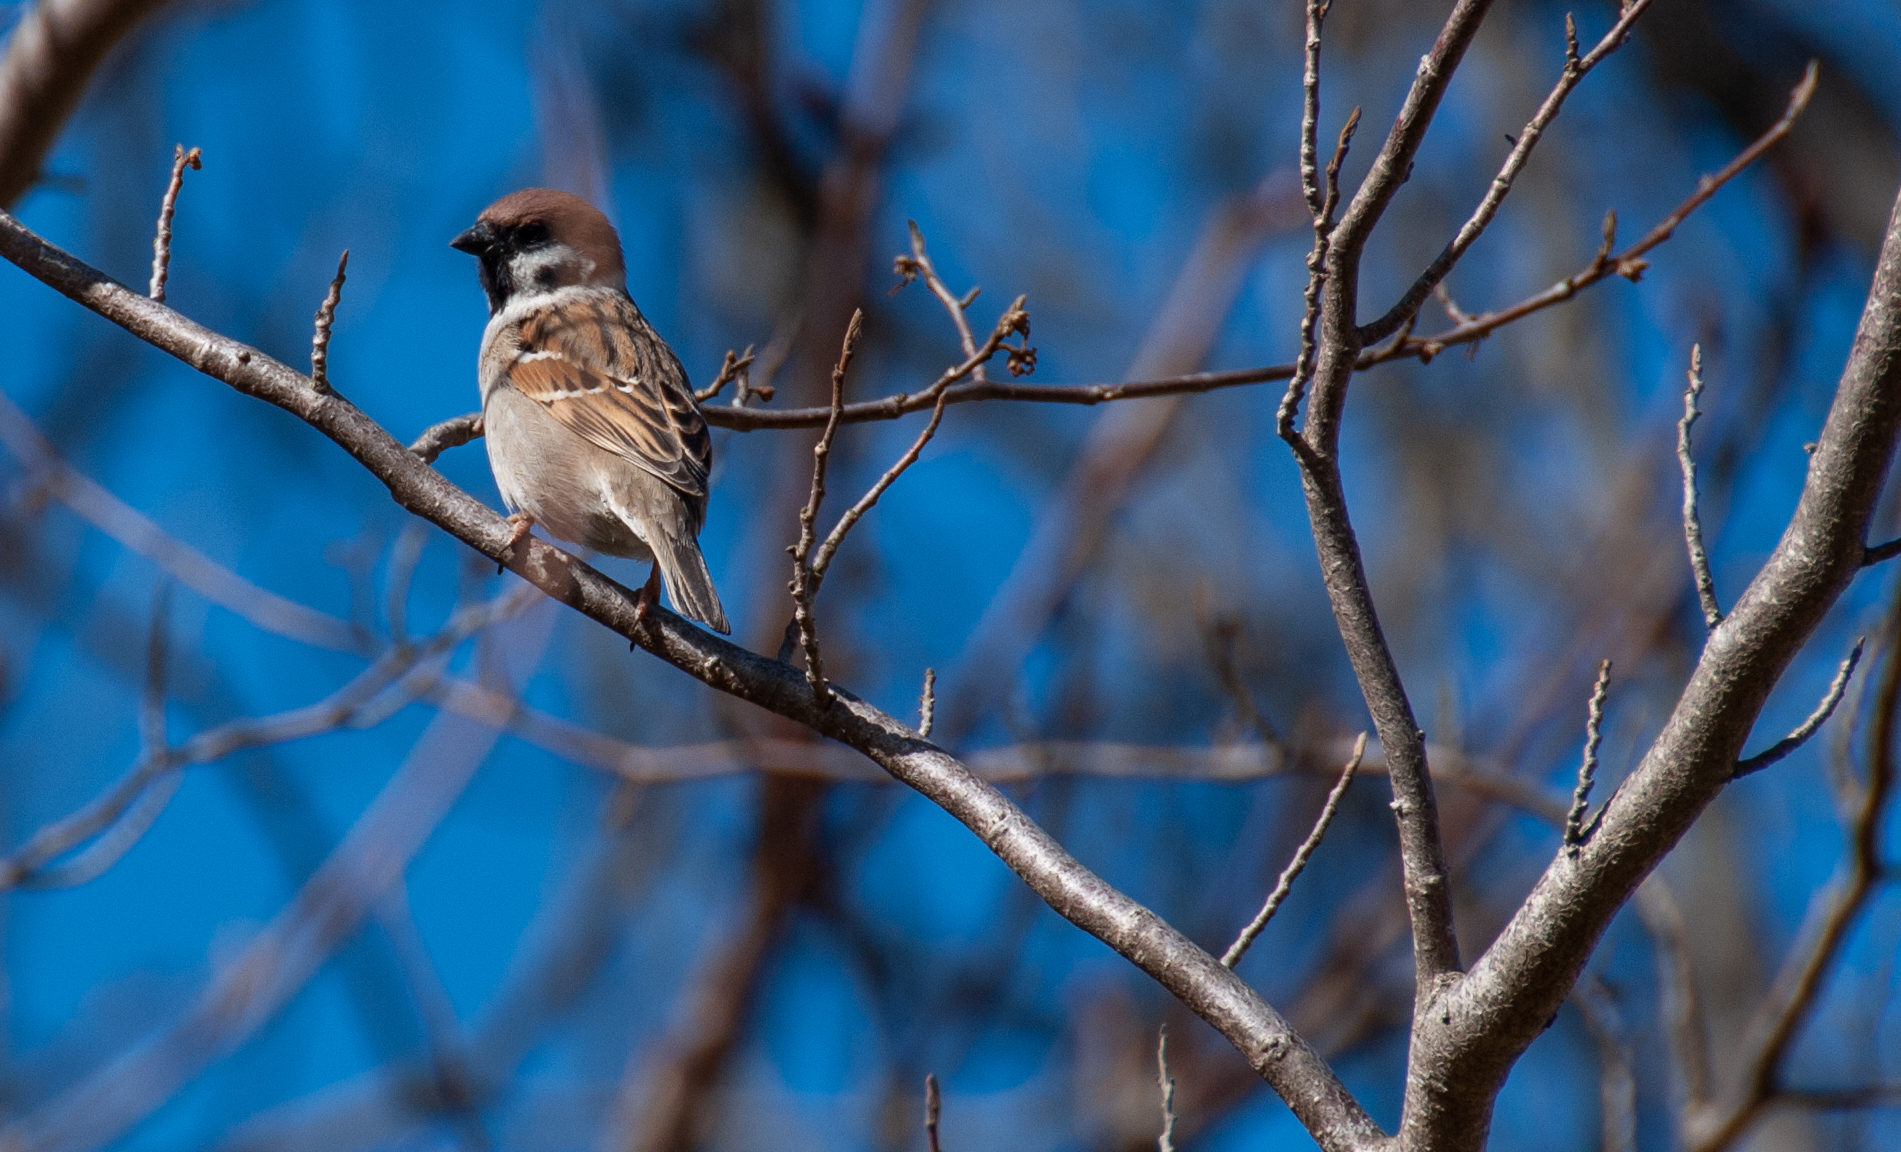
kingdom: Animalia
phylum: Chordata
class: Aves
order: Passeriformes
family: Passeridae
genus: Passer
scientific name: Passer montanus
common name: Eurasian tree sparrow
